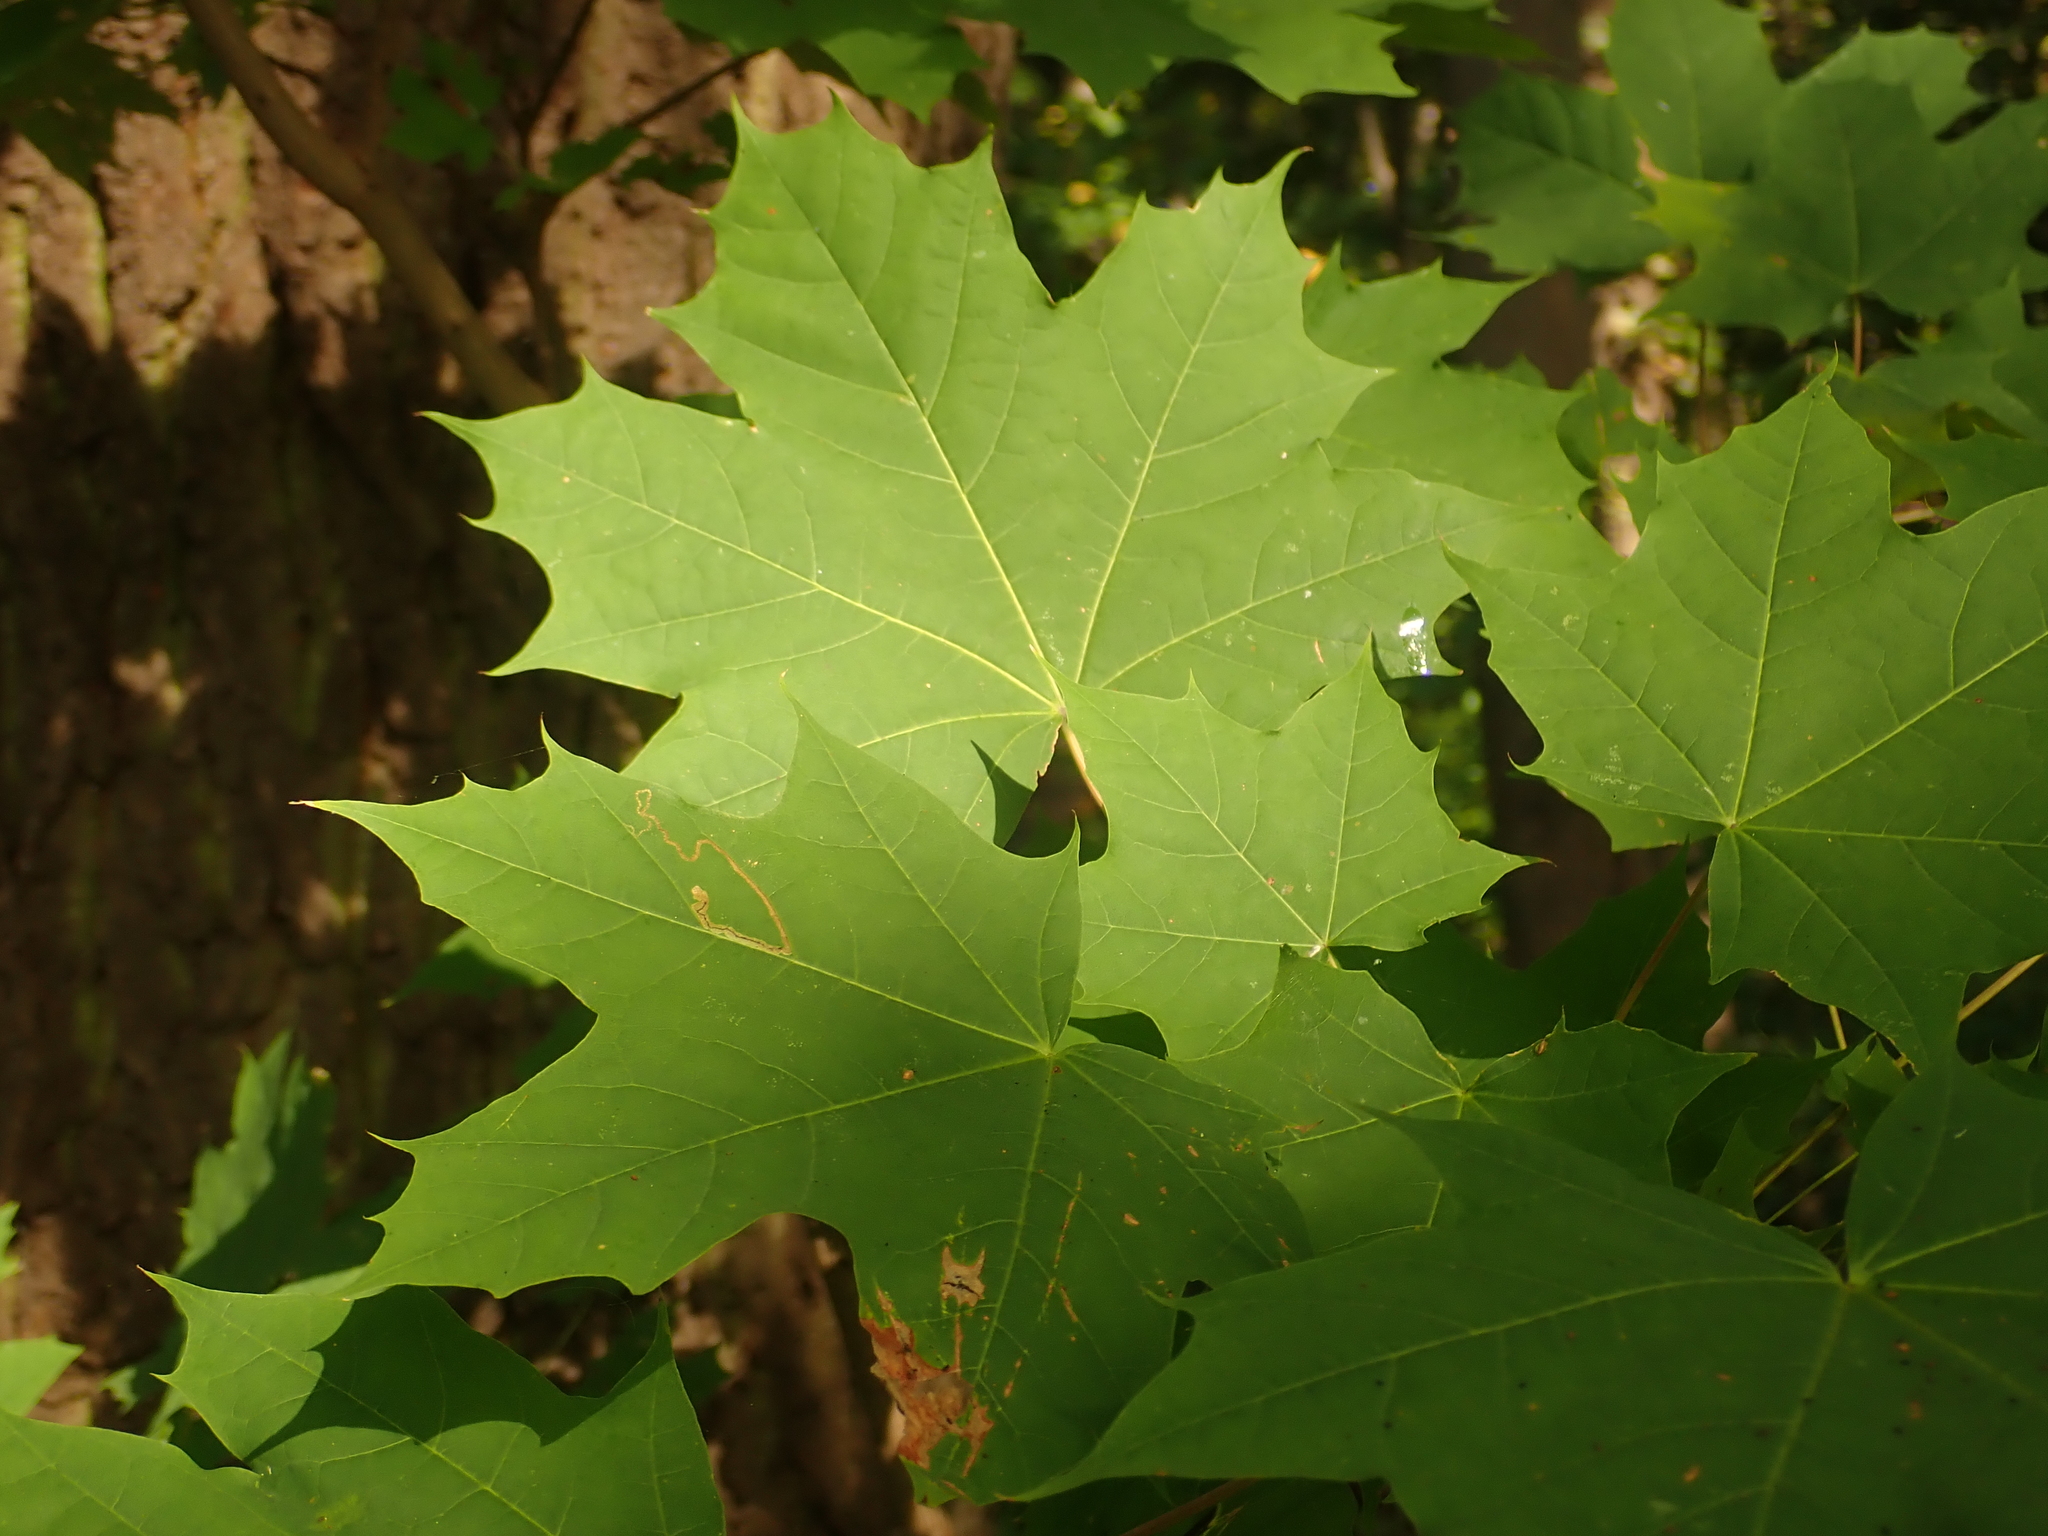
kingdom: Plantae
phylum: Tracheophyta
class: Magnoliopsida
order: Sapindales
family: Sapindaceae
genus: Acer
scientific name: Acer platanoides
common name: Norway maple
